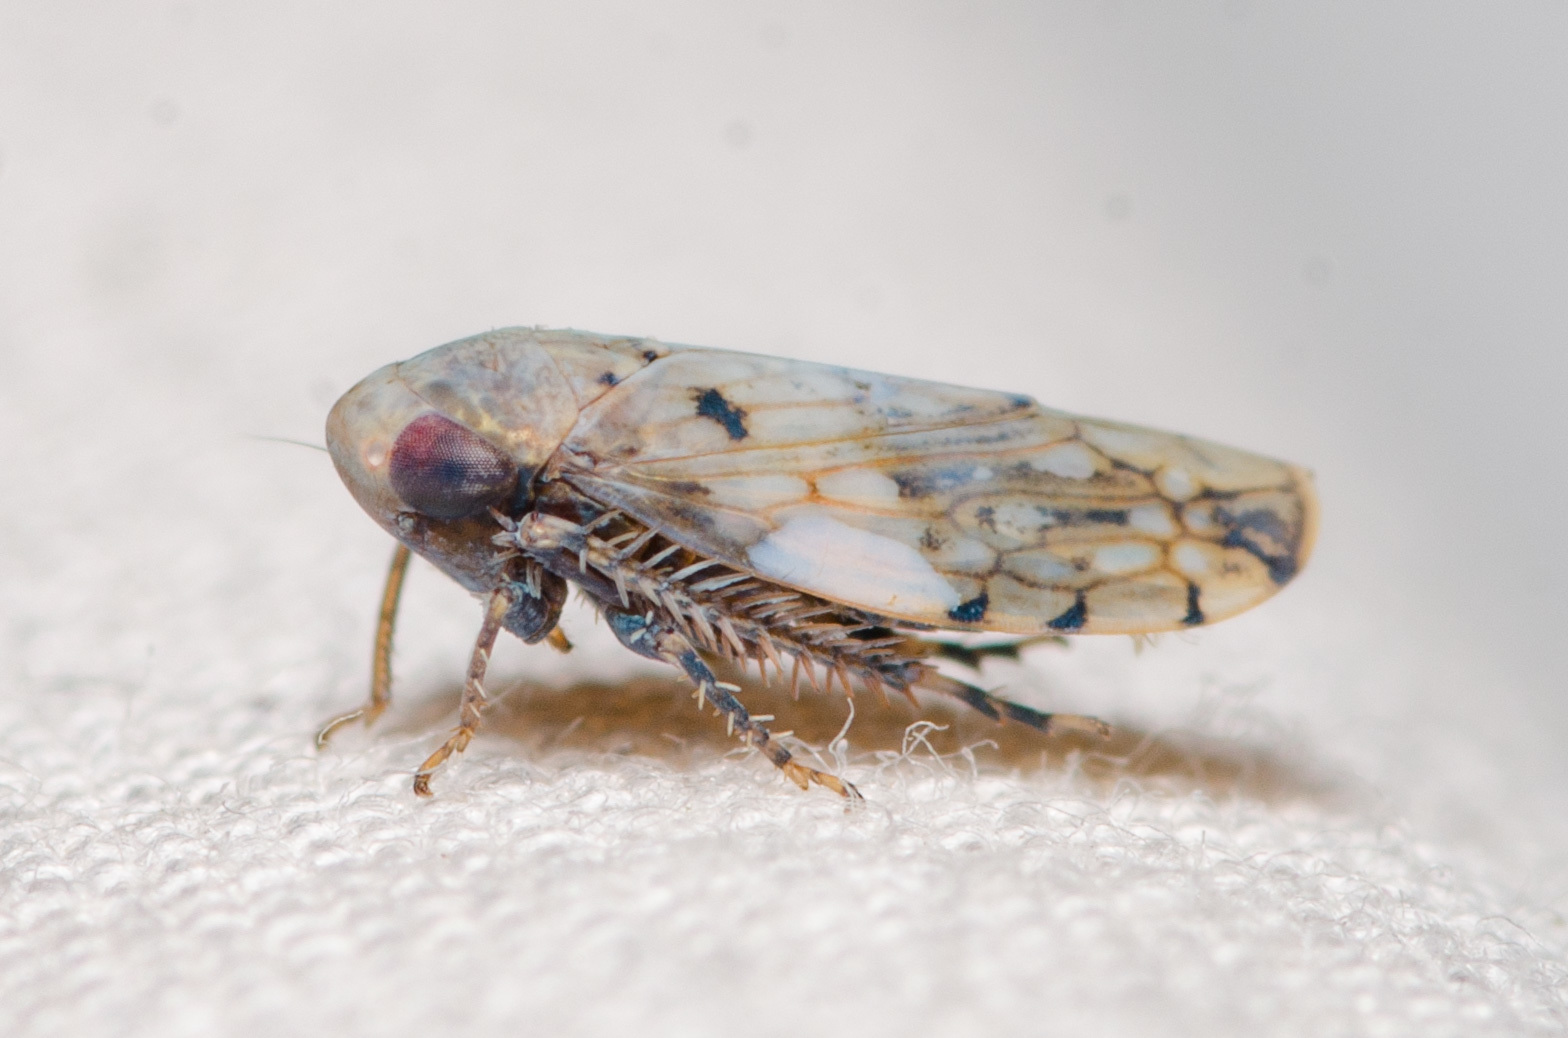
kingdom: Animalia
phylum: Arthropoda
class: Insecta
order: Hemiptera
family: Cicadellidae
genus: Menosoma
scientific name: Menosoma cinctum
